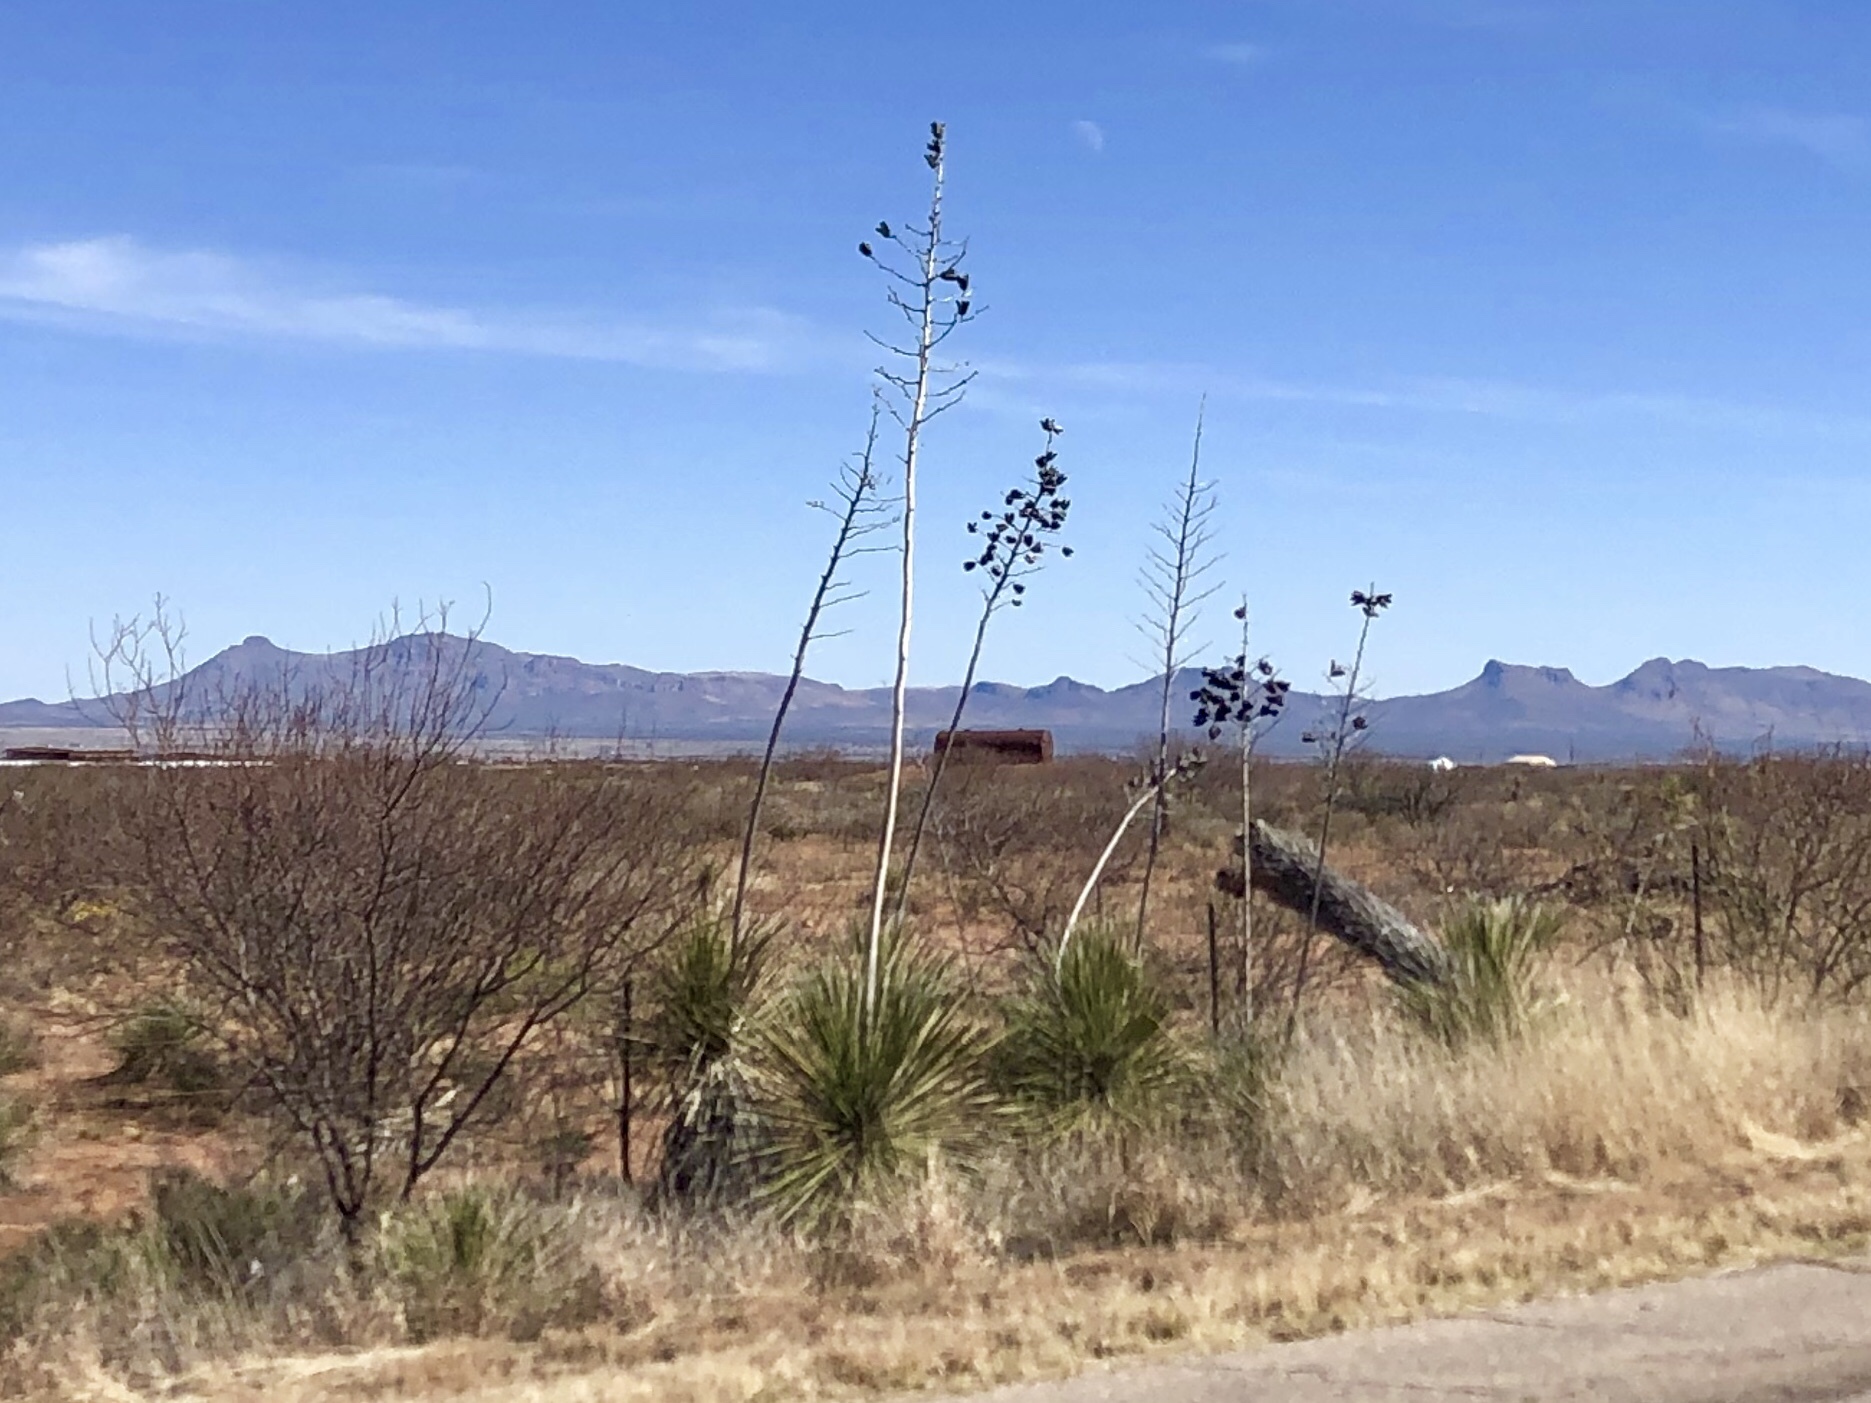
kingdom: Plantae
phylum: Tracheophyta
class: Liliopsida
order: Asparagales
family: Asparagaceae
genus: Yucca
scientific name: Yucca elata
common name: Palmella
